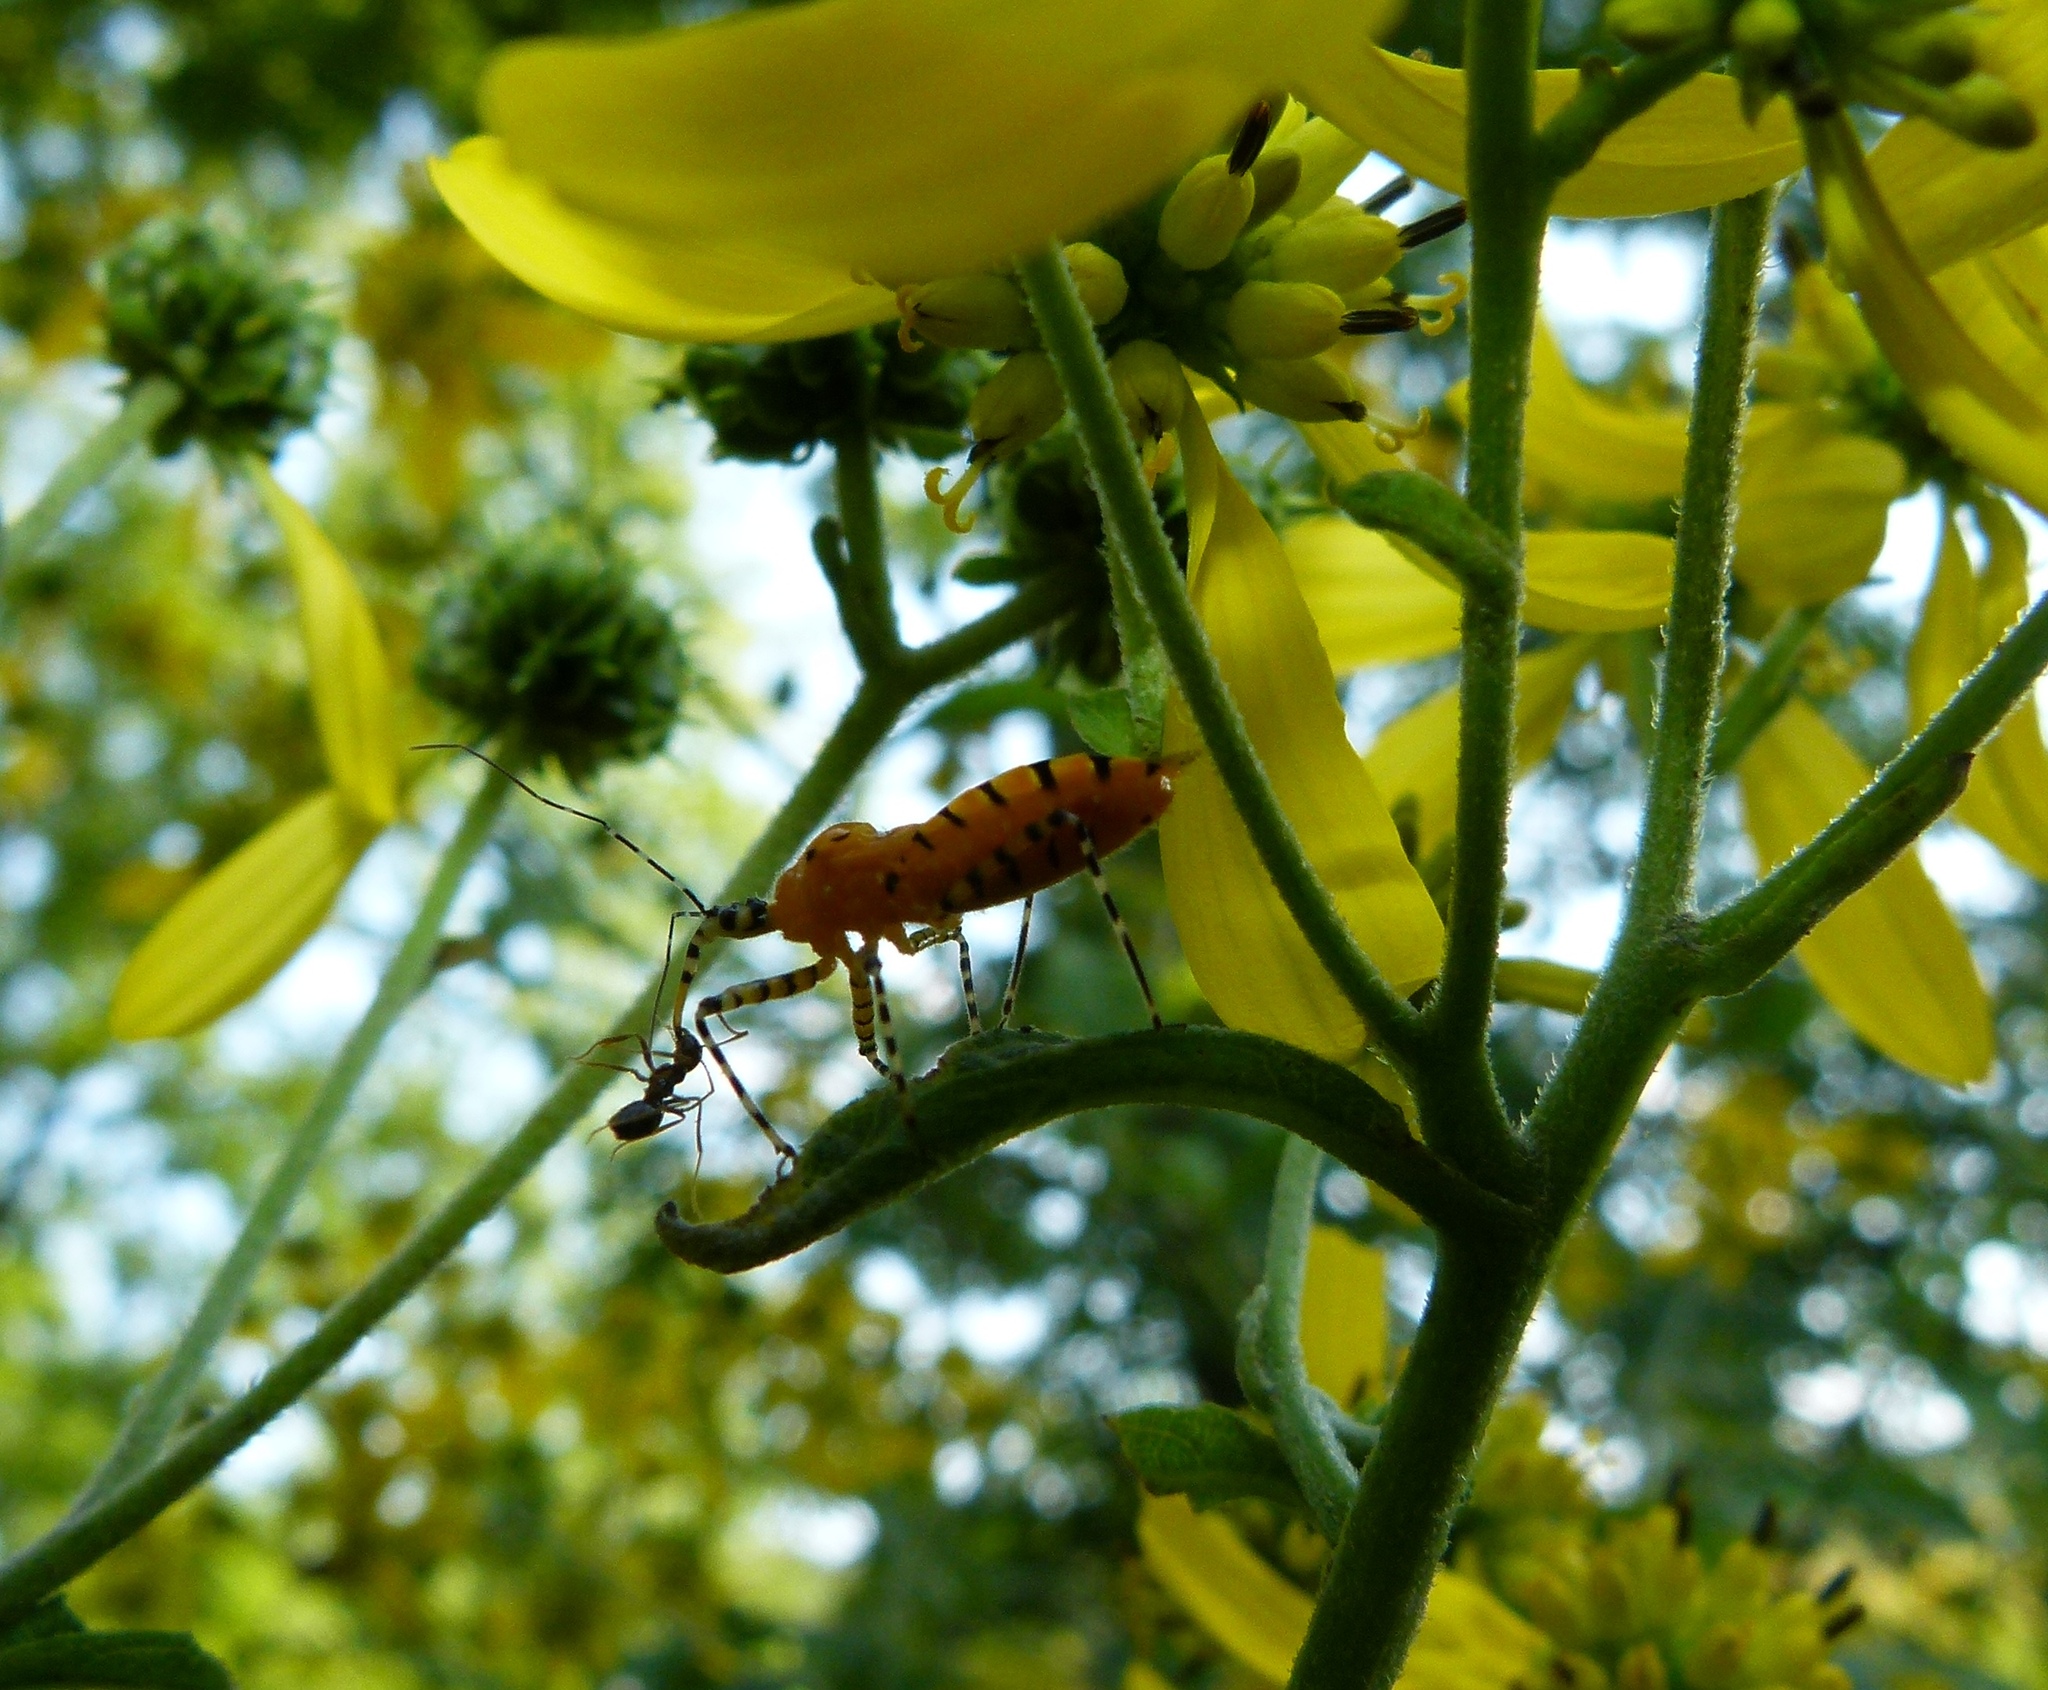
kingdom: Animalia
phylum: Arthropoda
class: Insecta
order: Hemiptera
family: Reduviidae
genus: Pselliopus
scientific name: Pselliopus barberi
